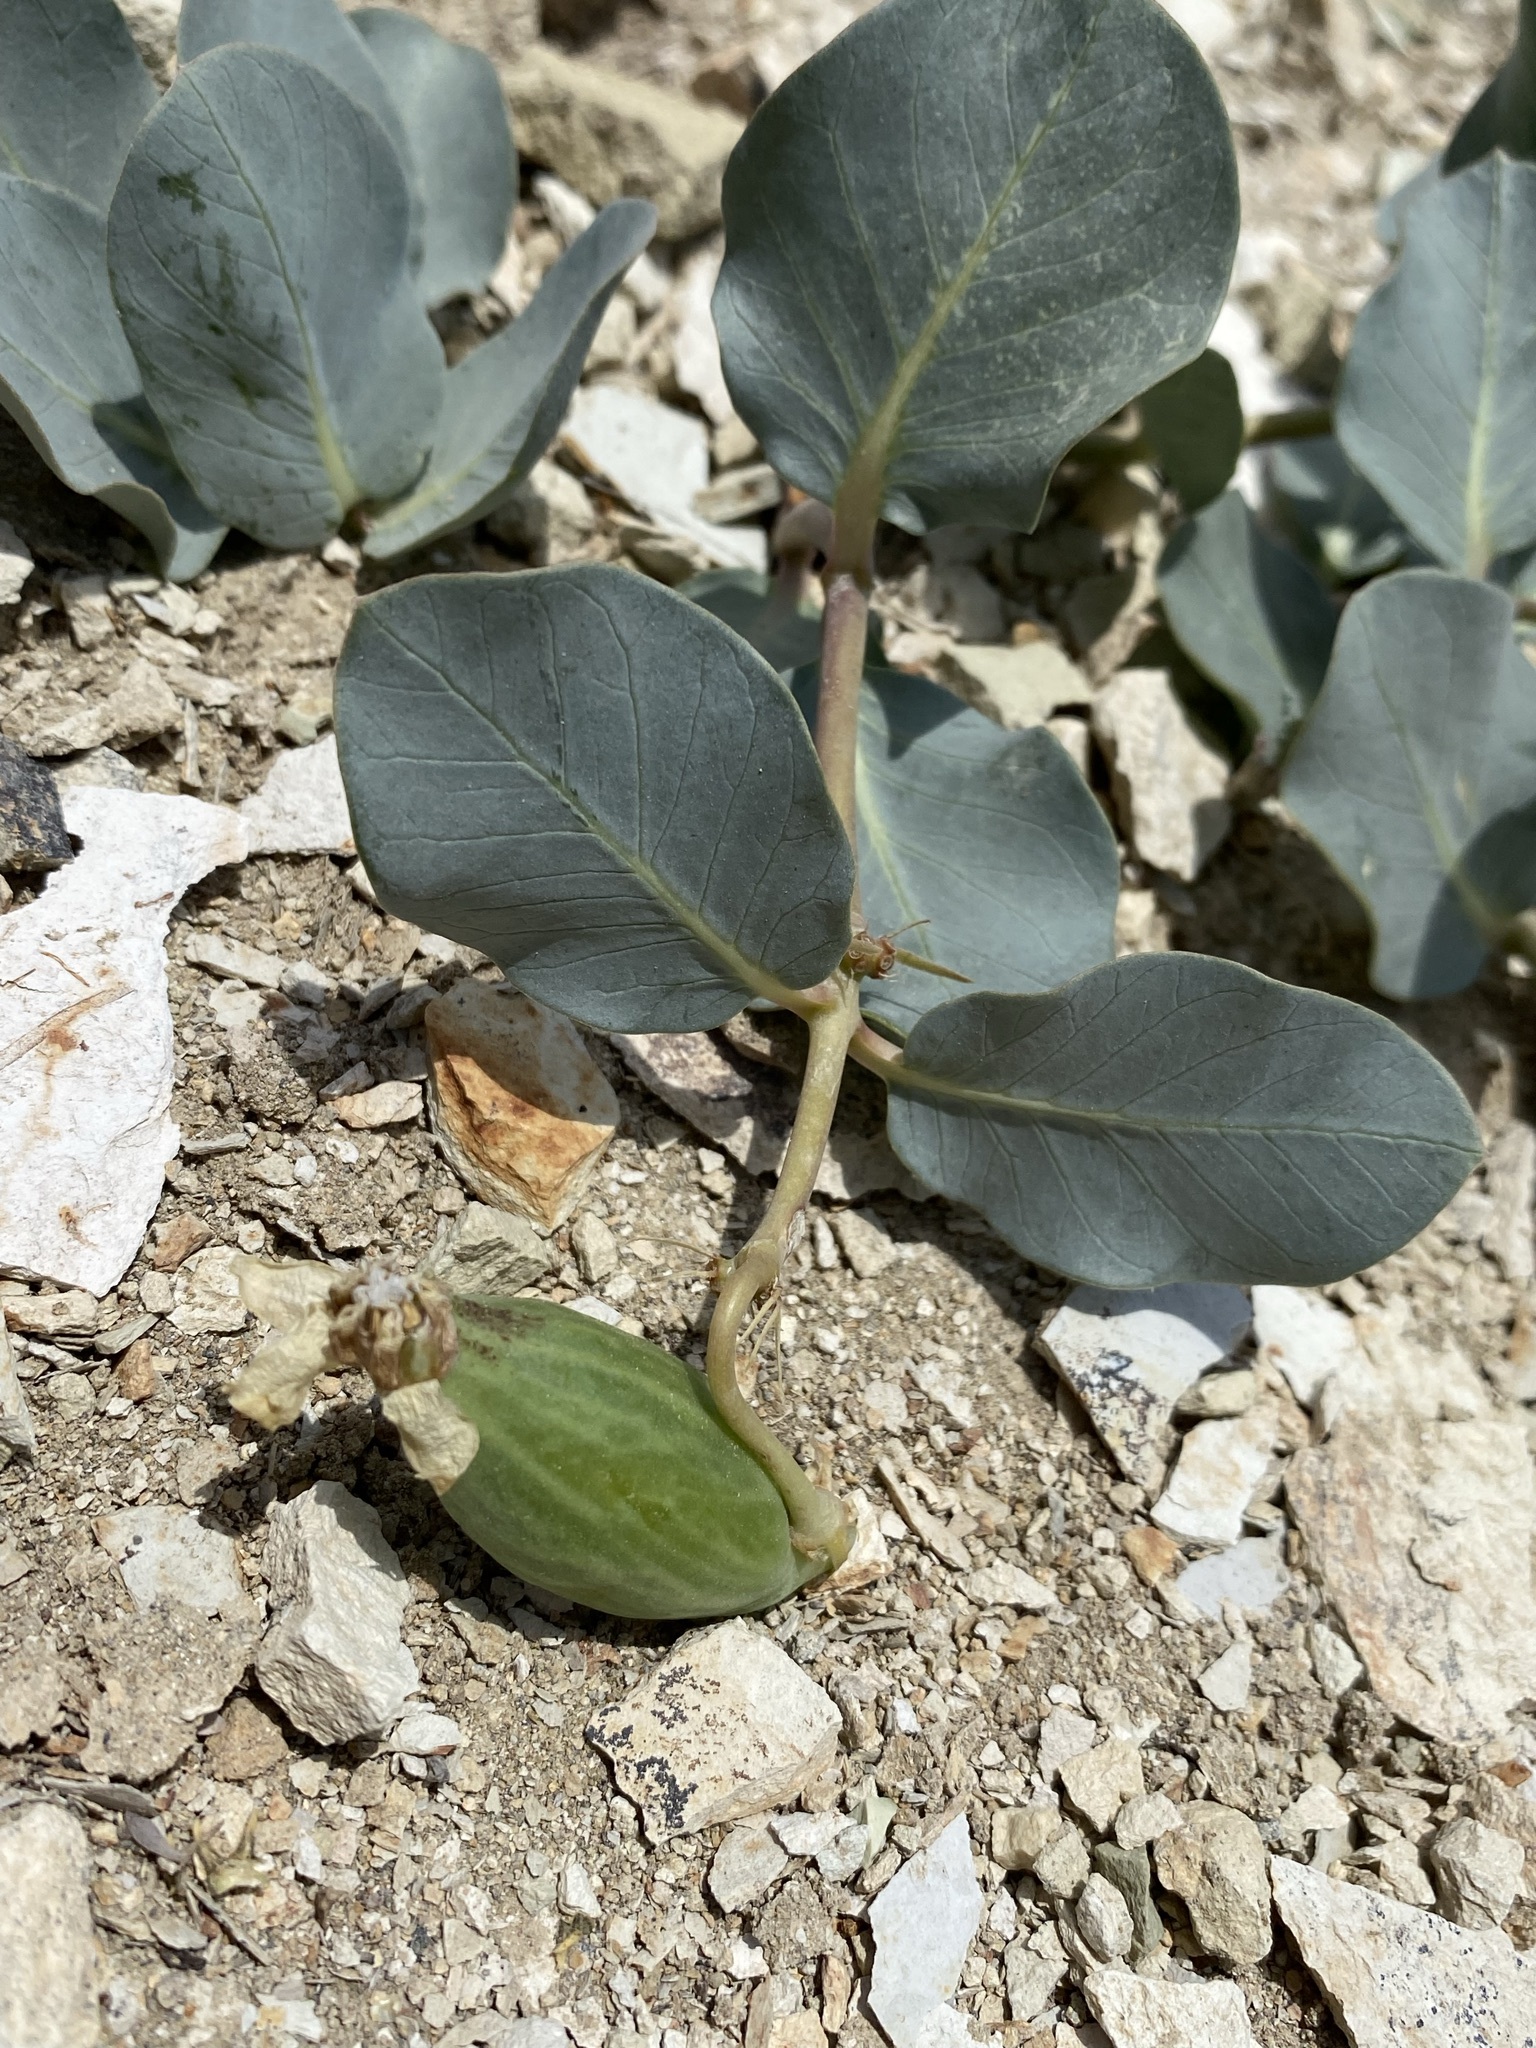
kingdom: Plantae
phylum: Tracheophyta
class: Magnoliopsida
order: Gentianales
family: Apocynaceae
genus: Asclepias
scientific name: Asclepias cryptoceras
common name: Humboldt mountains milkweed
